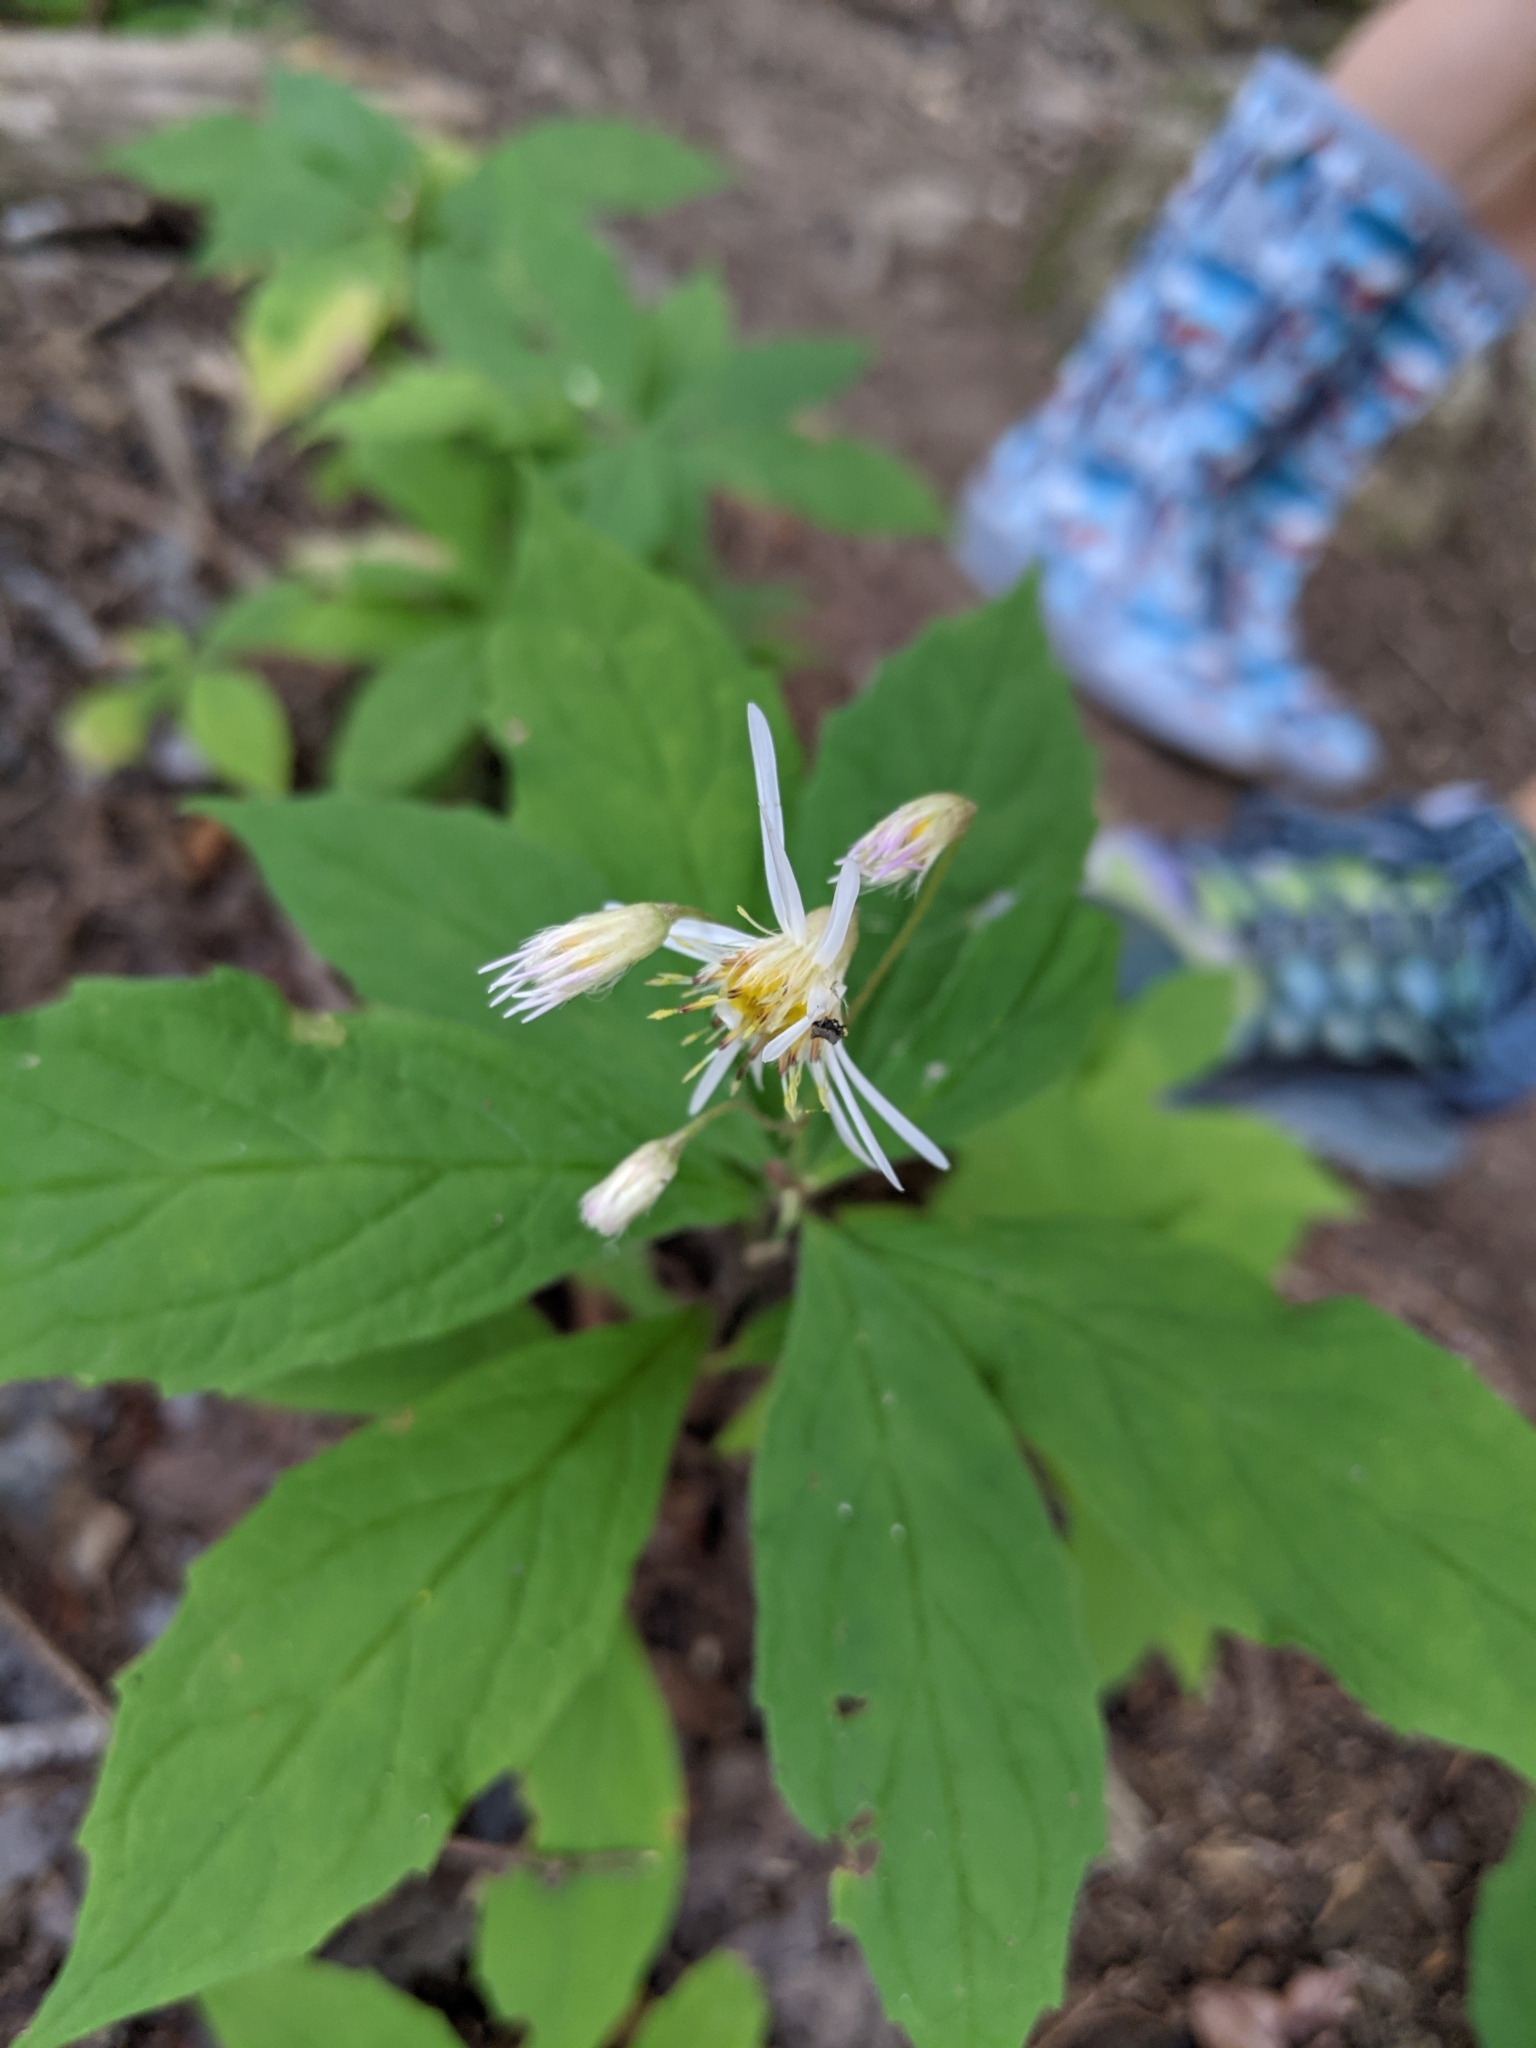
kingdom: Plantae
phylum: Tracheophyta
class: Magnoliopsida
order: Asterales
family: Asteraceae
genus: Oclemena
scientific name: Oclemena acuminata
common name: Mountain aster
